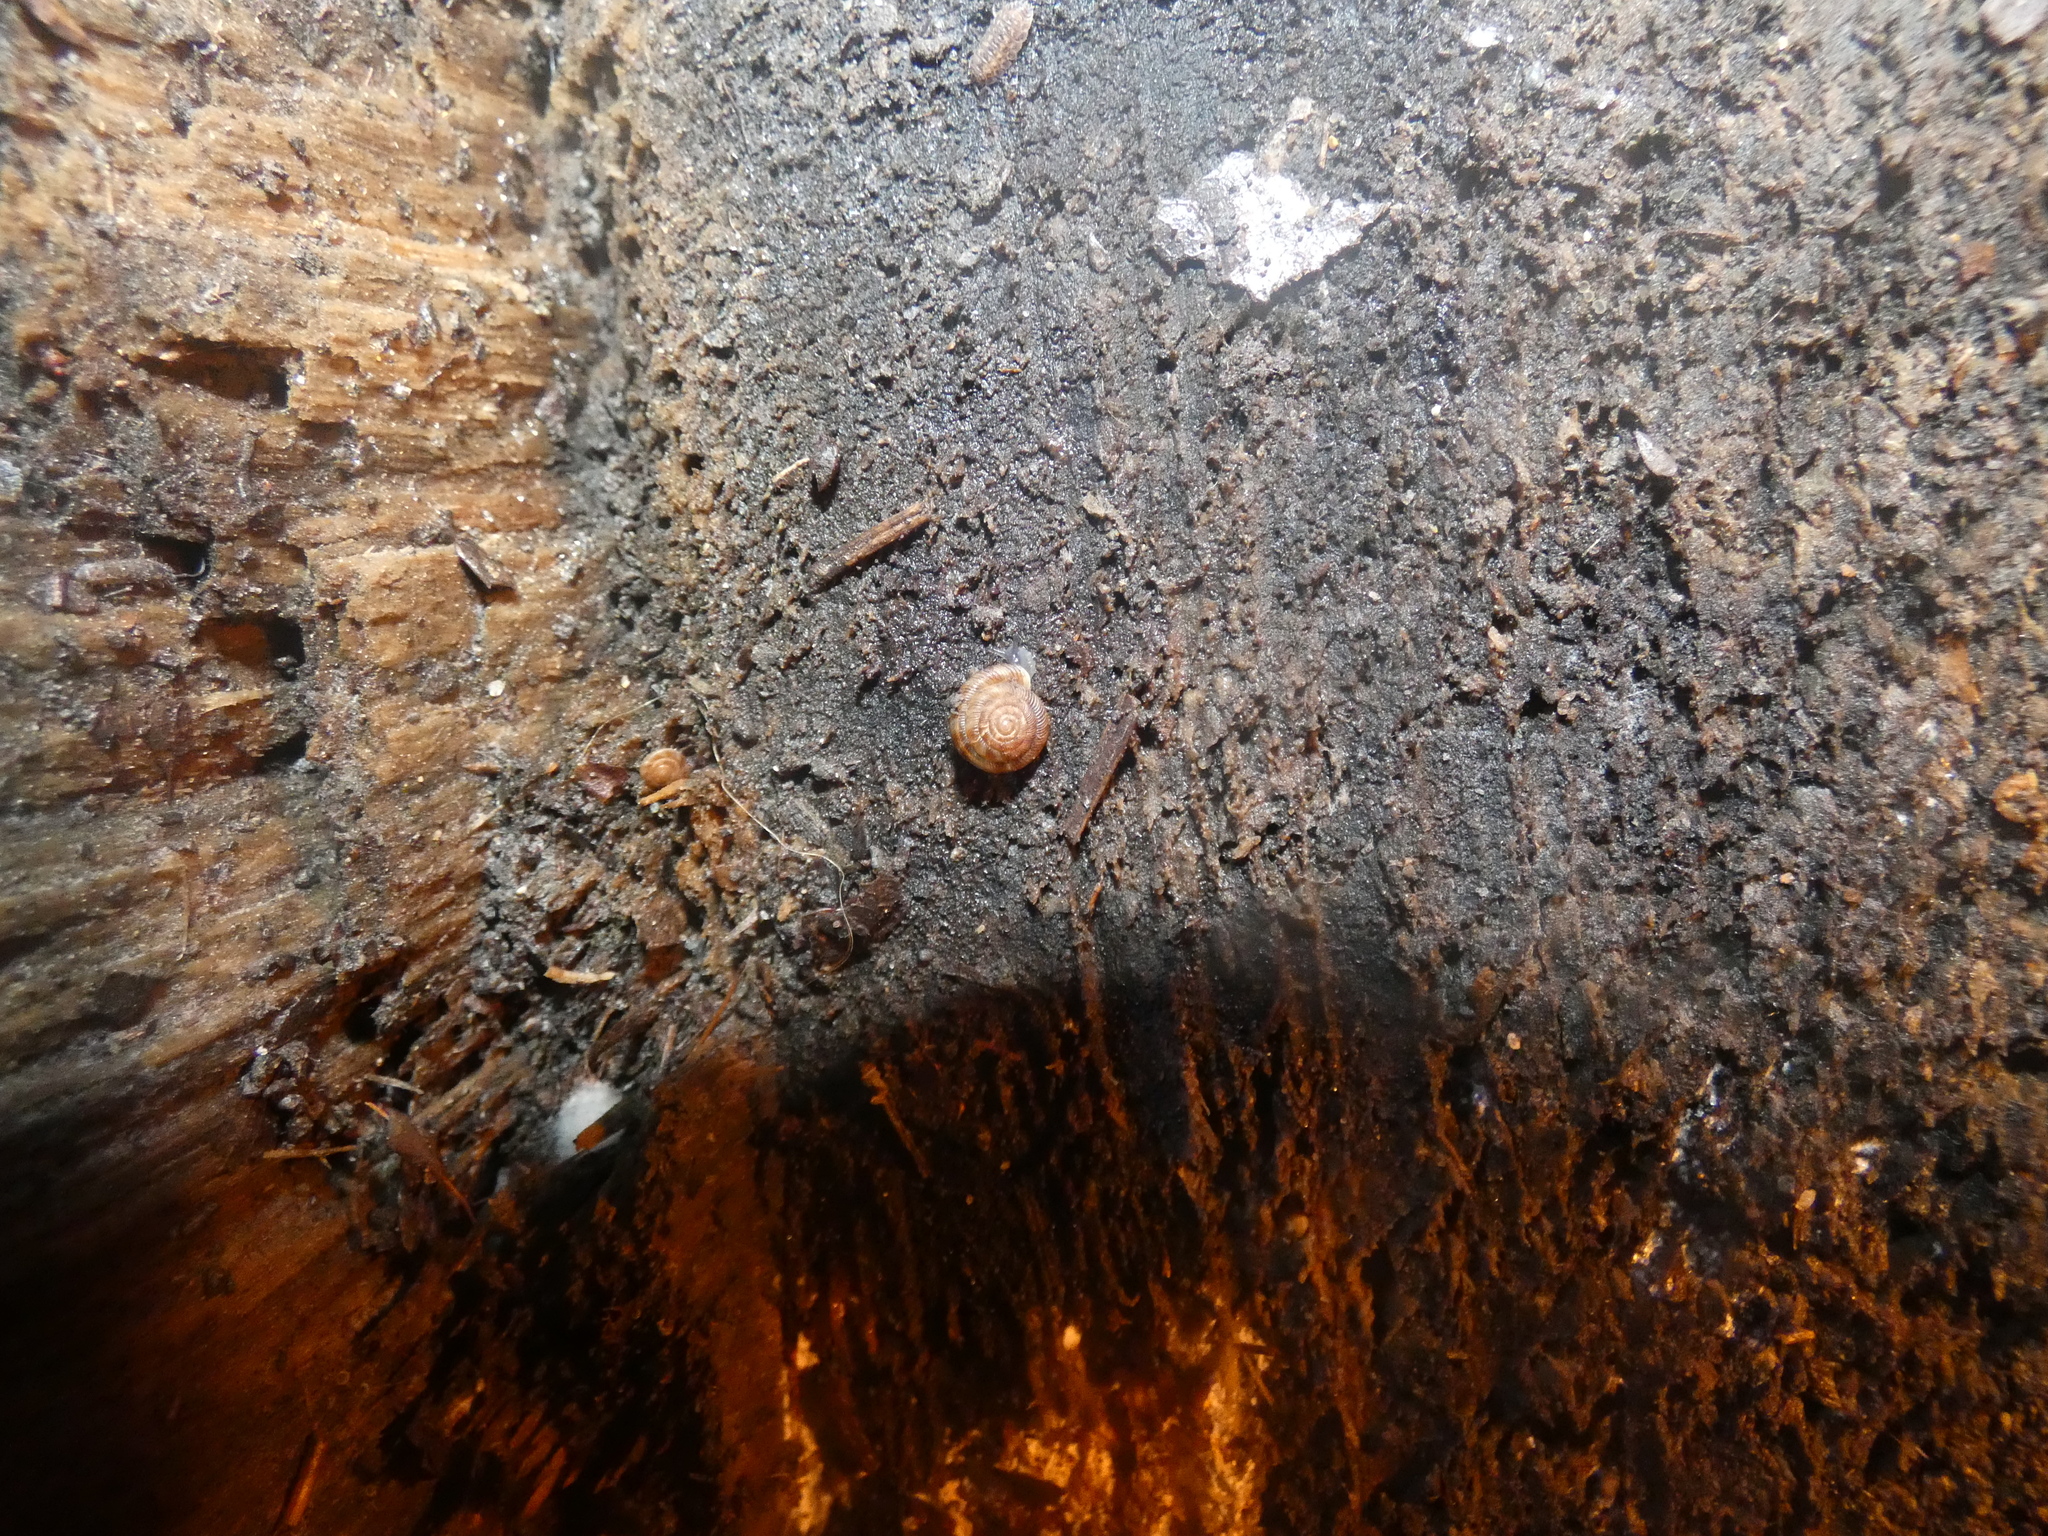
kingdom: Animalia
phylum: Mollusca
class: Gastropoda
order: Stylommatophora
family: Discidae
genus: Discus
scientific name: Discus rotundatus
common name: Rounded snail
